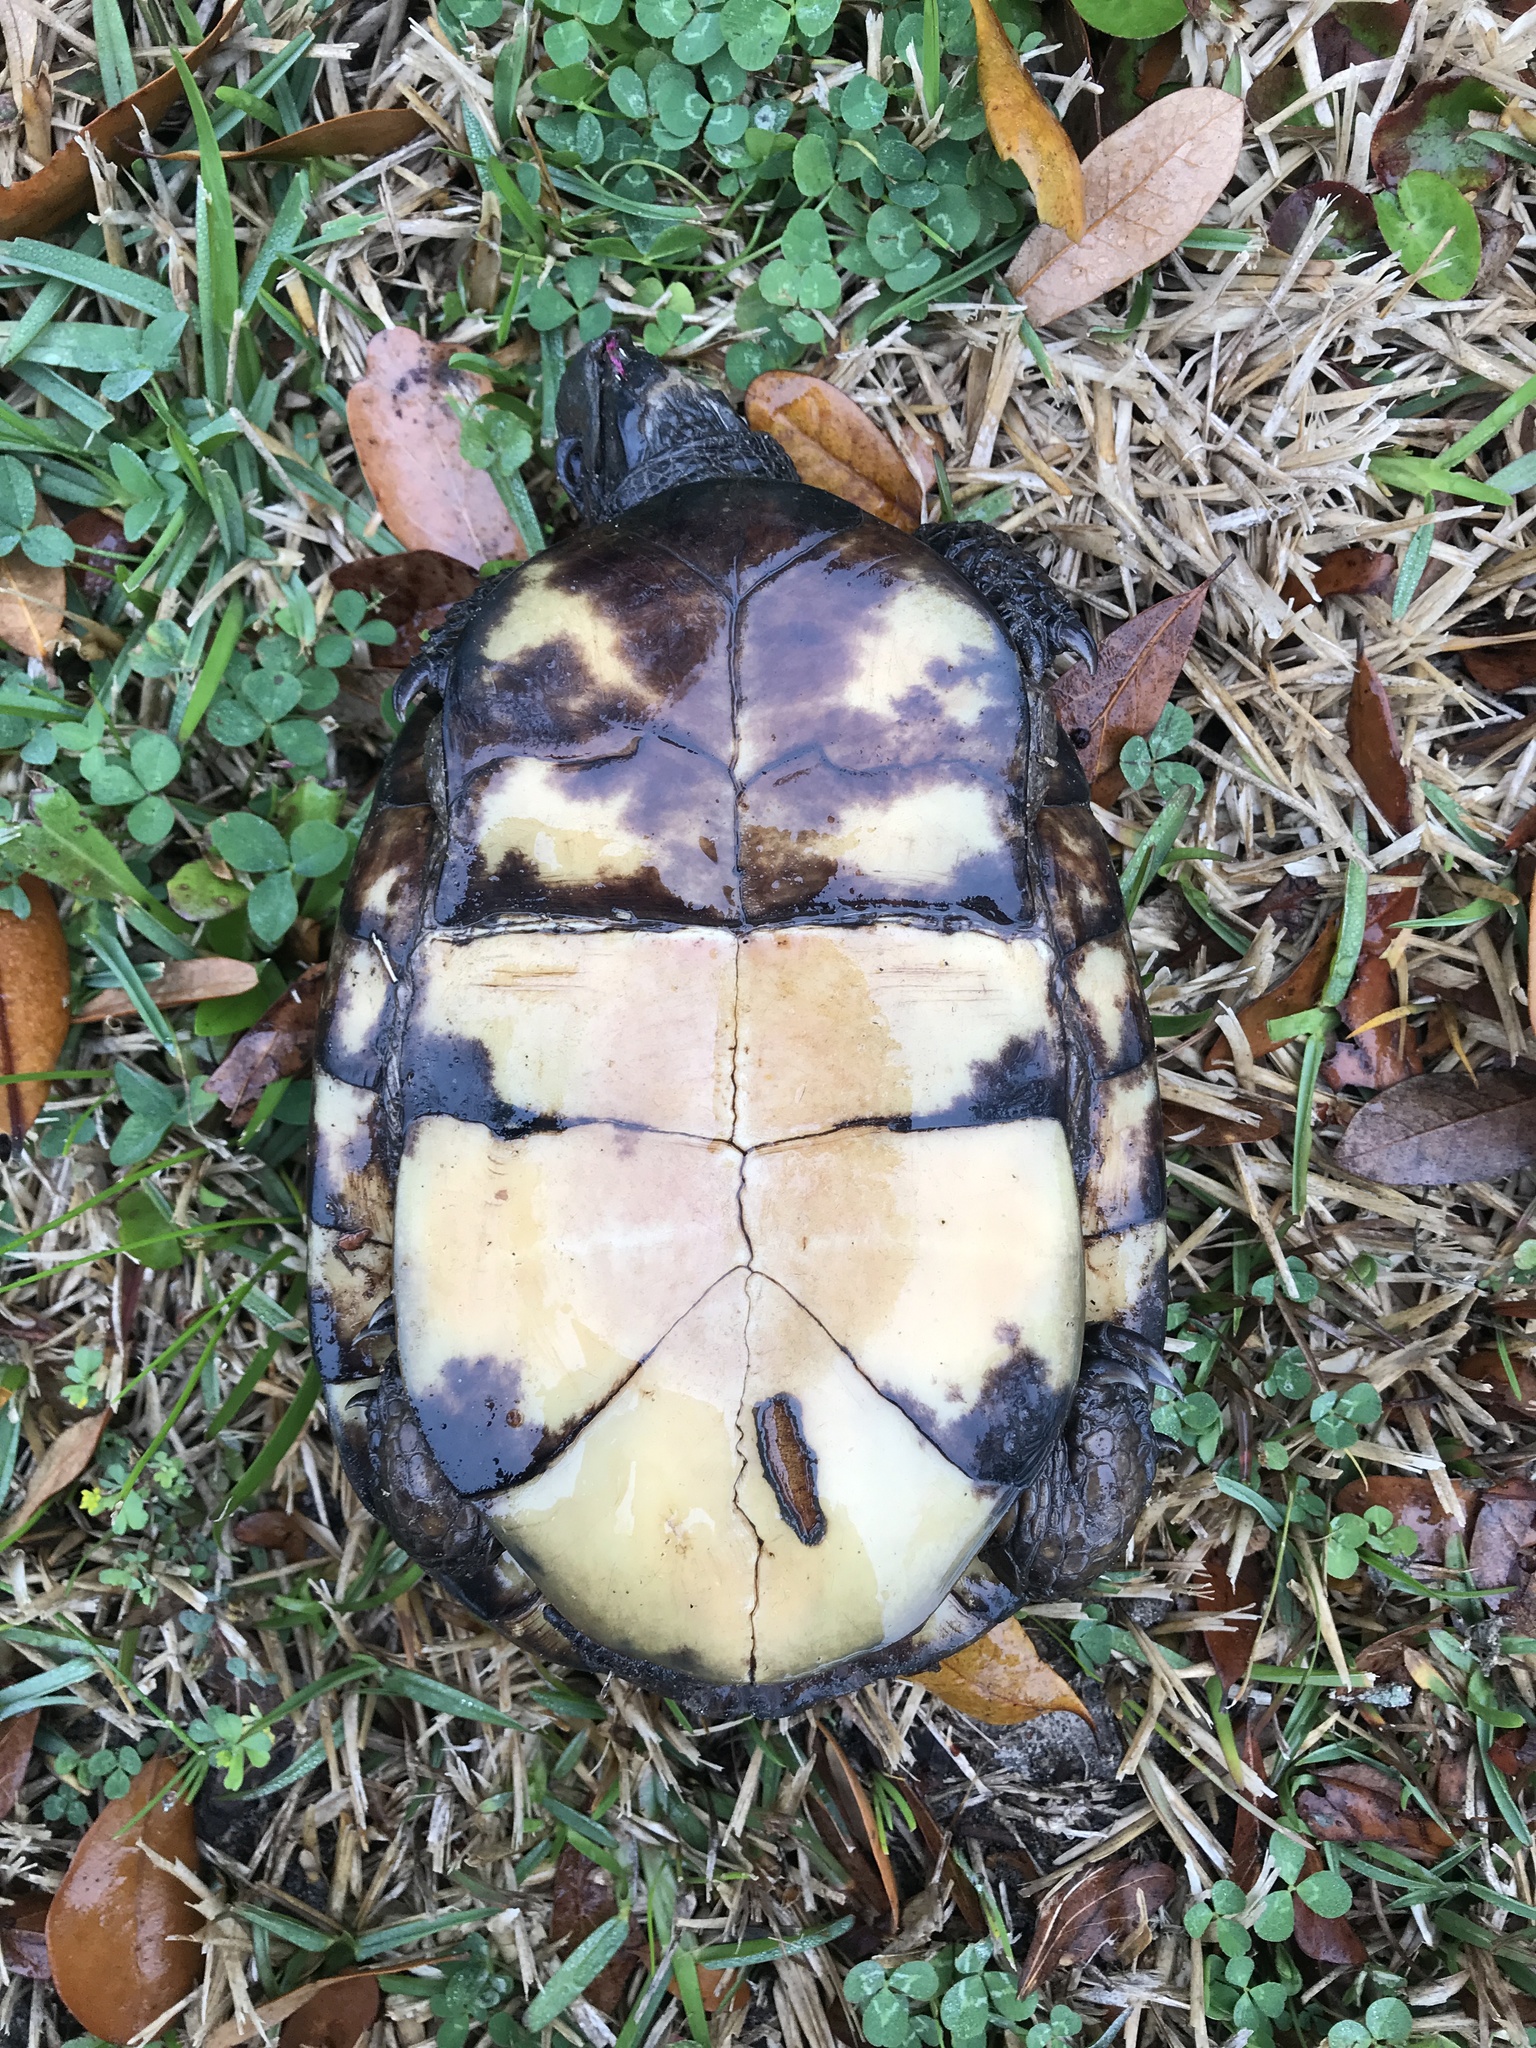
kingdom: Animalia
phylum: Chordata
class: Testudines
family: Emydidae
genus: Terrapene
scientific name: Terrapene carolina
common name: Common box turtle
